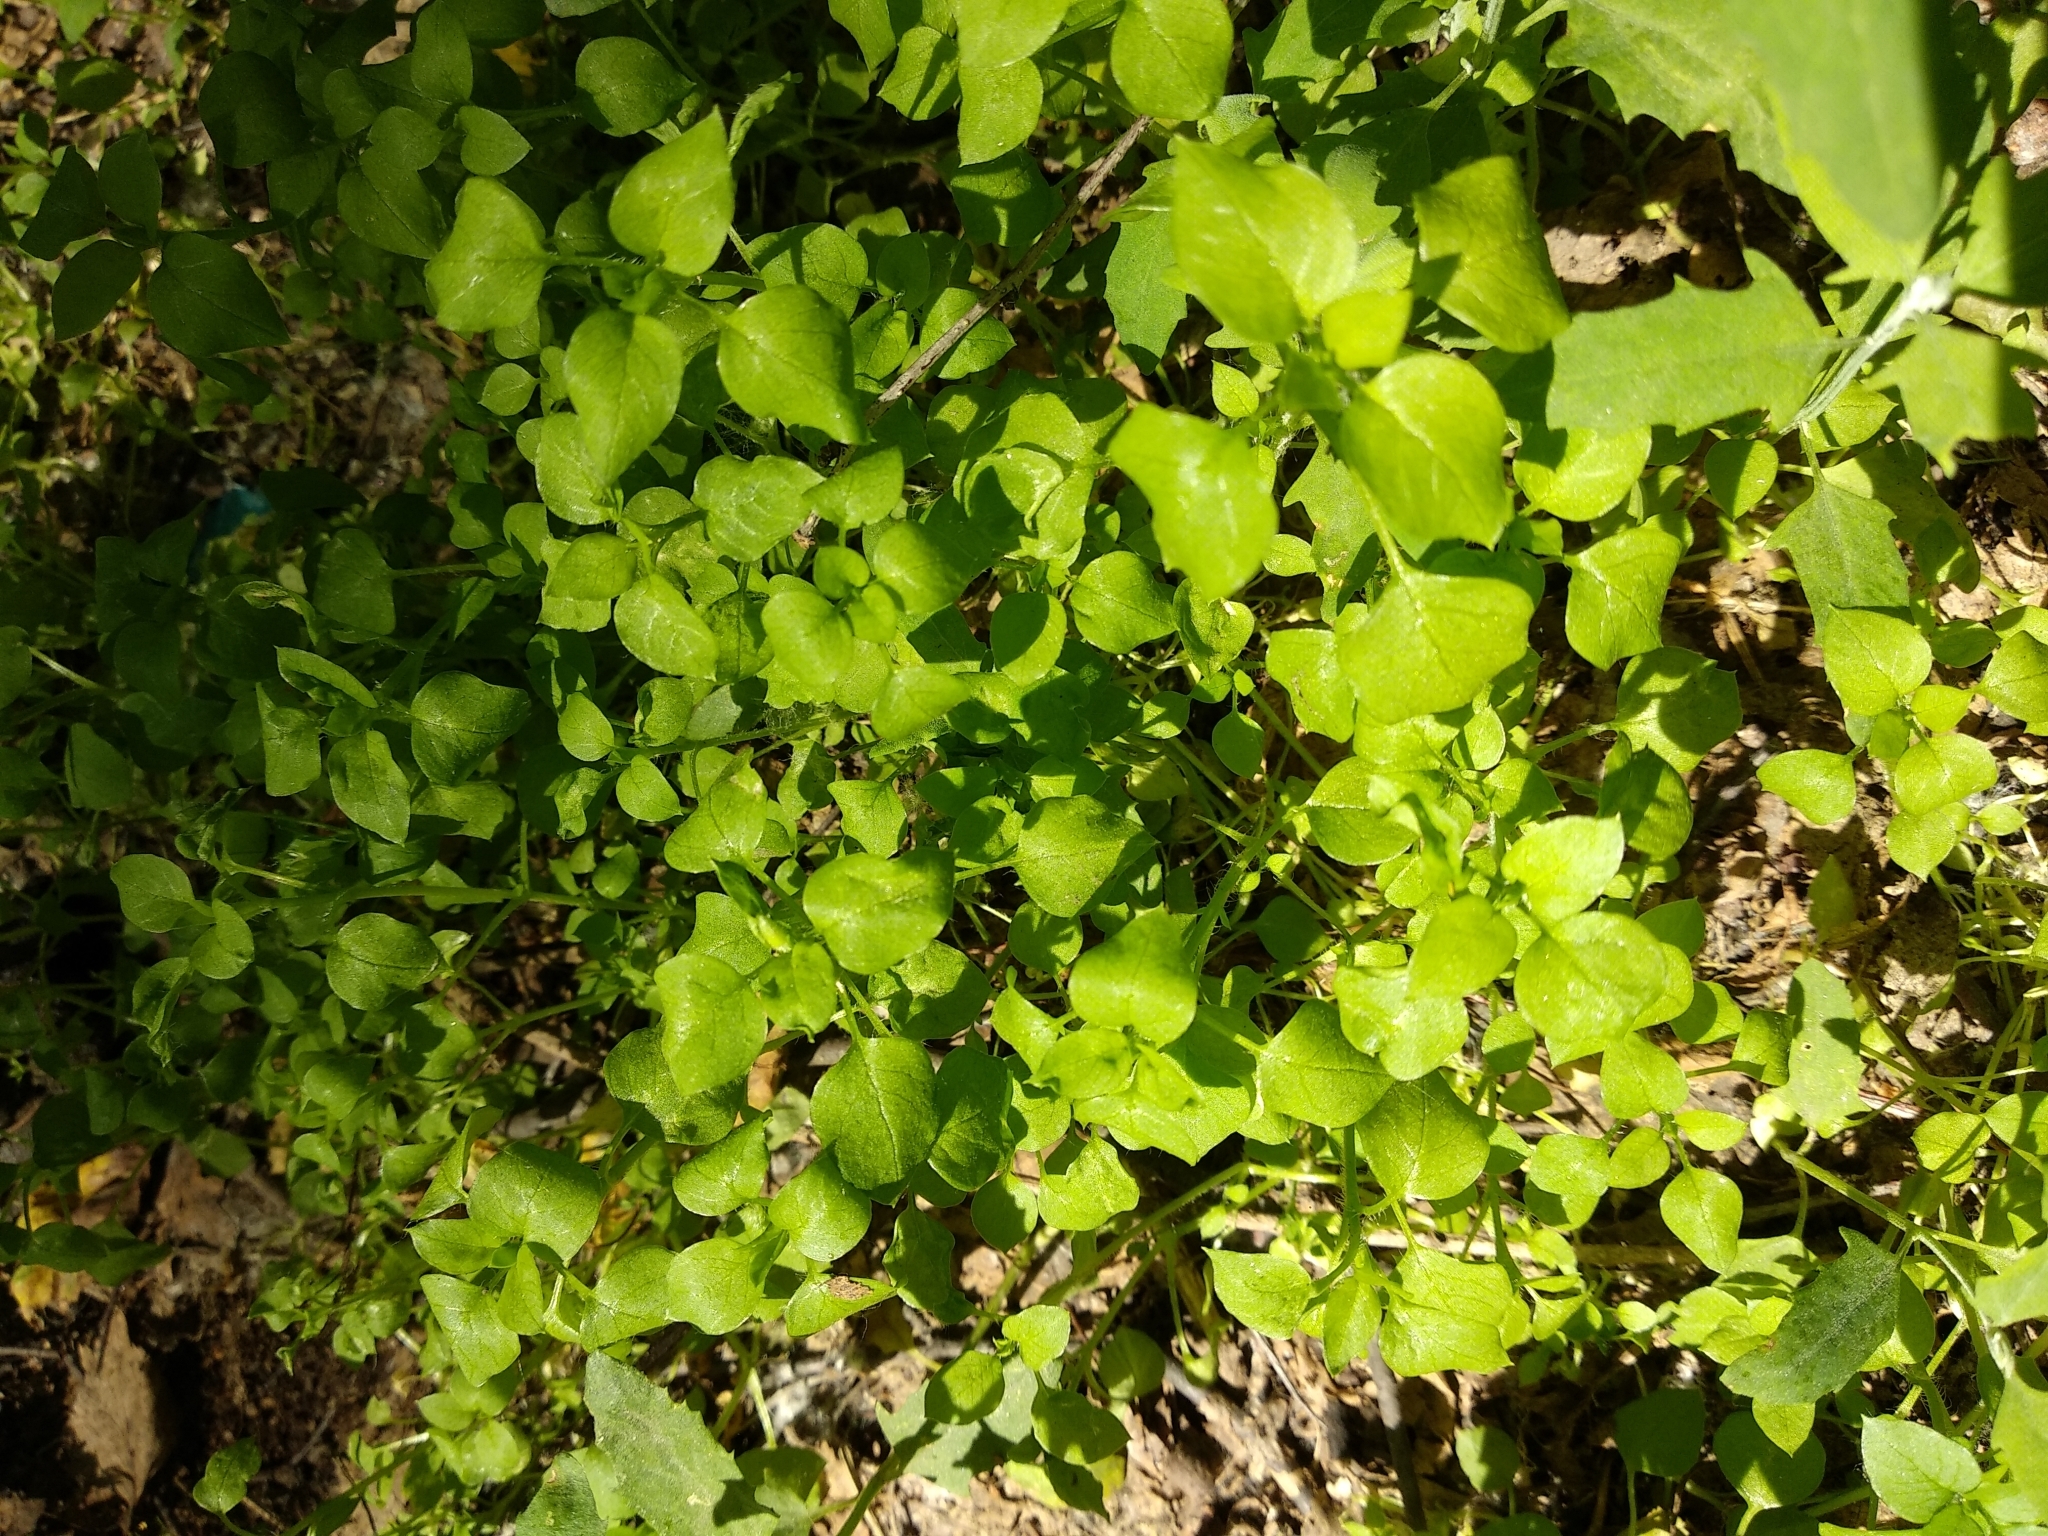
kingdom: Plantae
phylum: Tracheophyta
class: Magnoliopsida
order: Caryophyllales
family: Caryophyllaceae
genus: Stellaria
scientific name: Stellaria media
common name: Common chickweed
